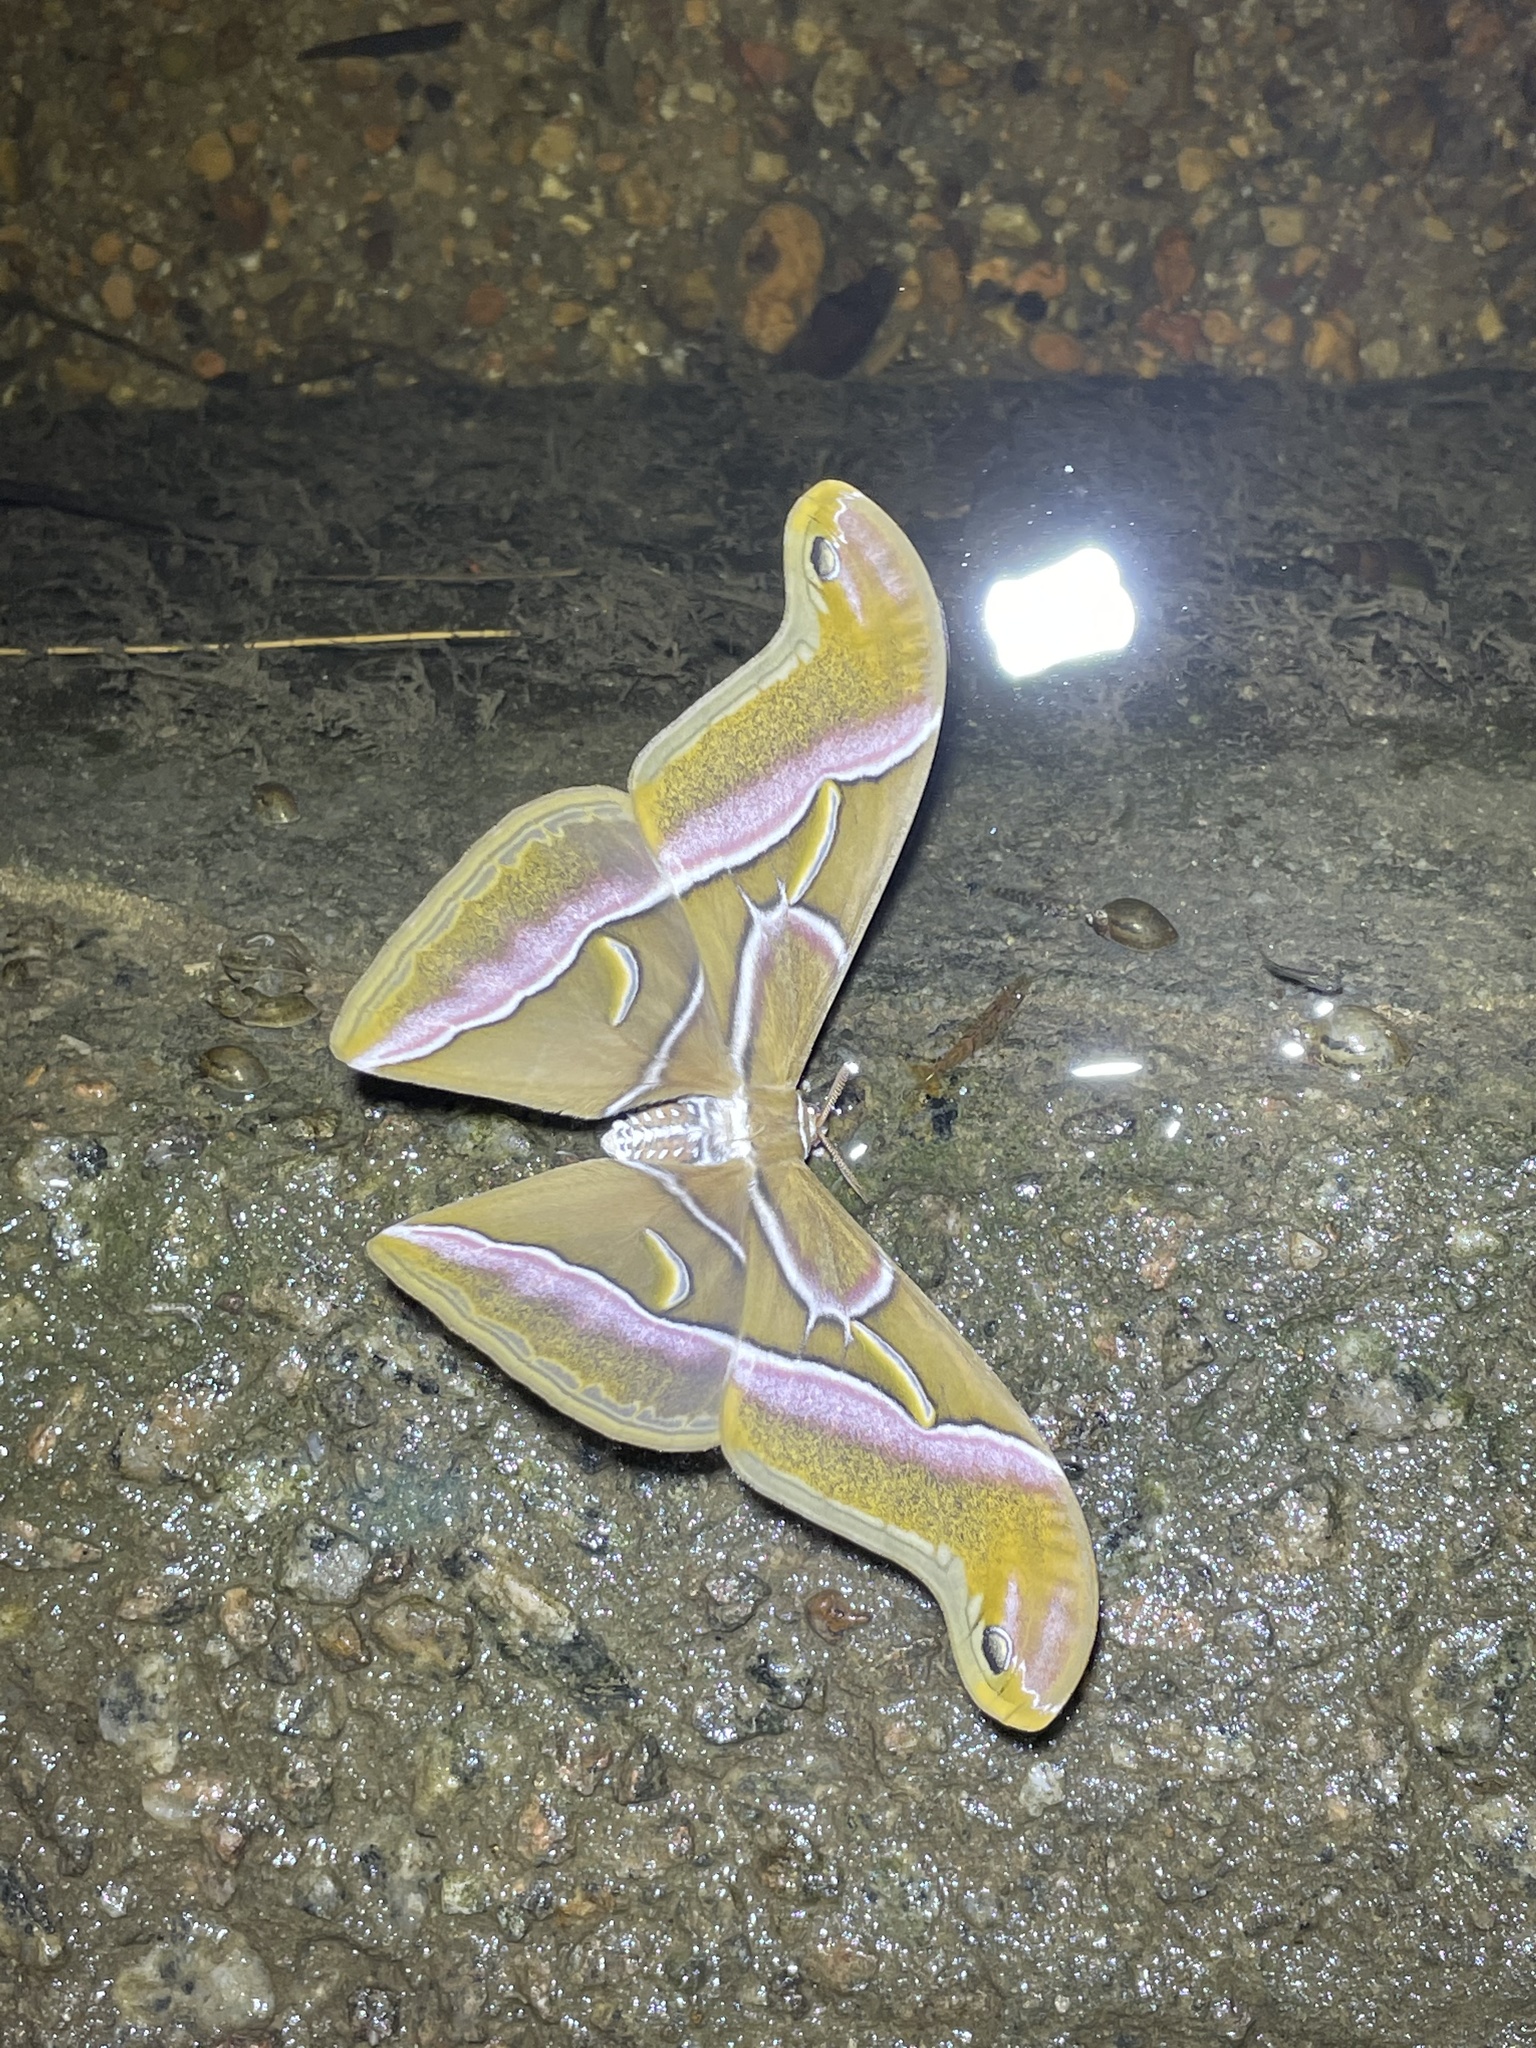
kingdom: Animalia
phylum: Arthropoda
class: Insecta
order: Lepidoptera
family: Saturniidae
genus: Samia
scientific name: Samia wangi
